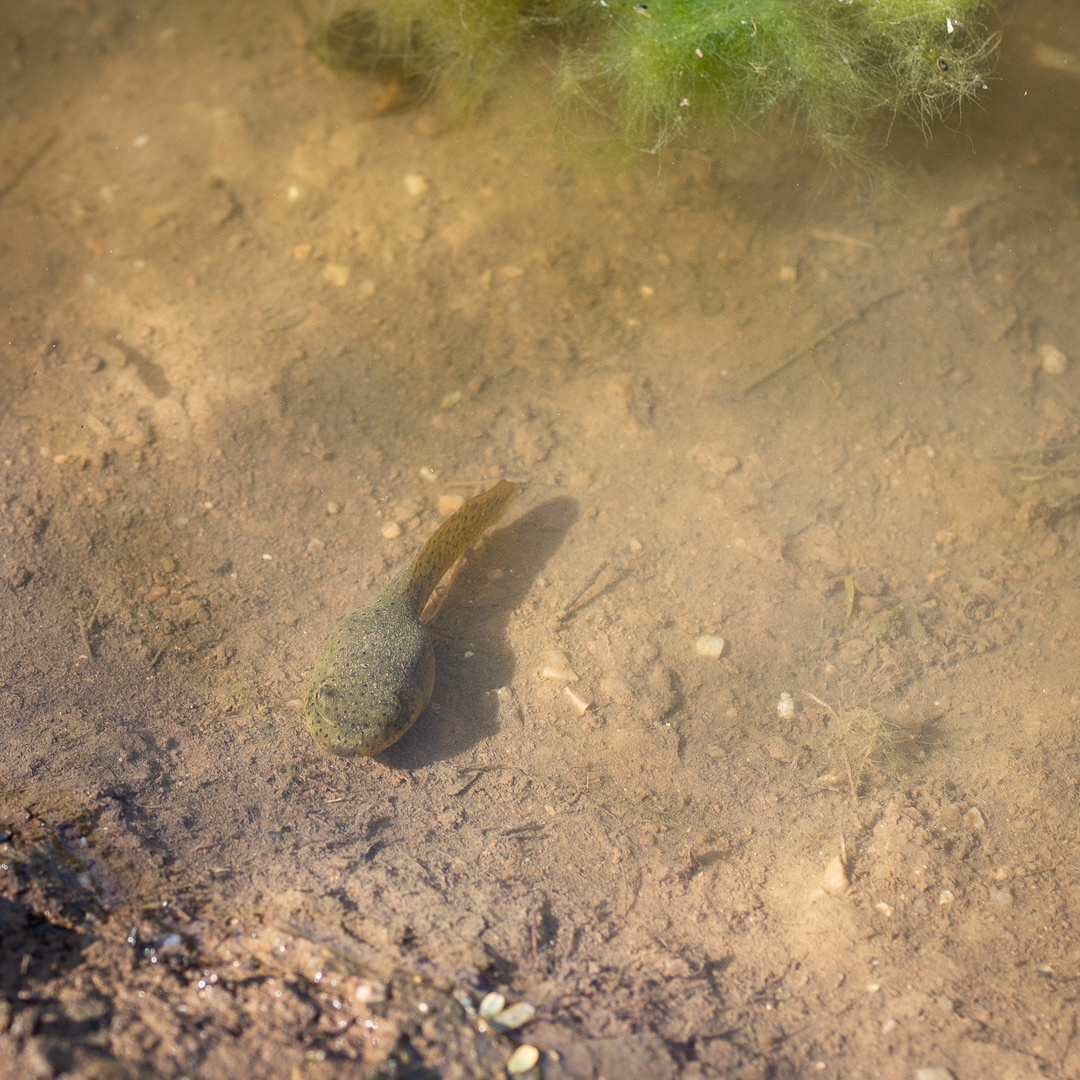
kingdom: Animalia
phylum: Chordata
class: Amphibia
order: Anura
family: Ranidae
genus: Lithobates
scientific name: Lithobates catesbeianus
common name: American bullfrog
